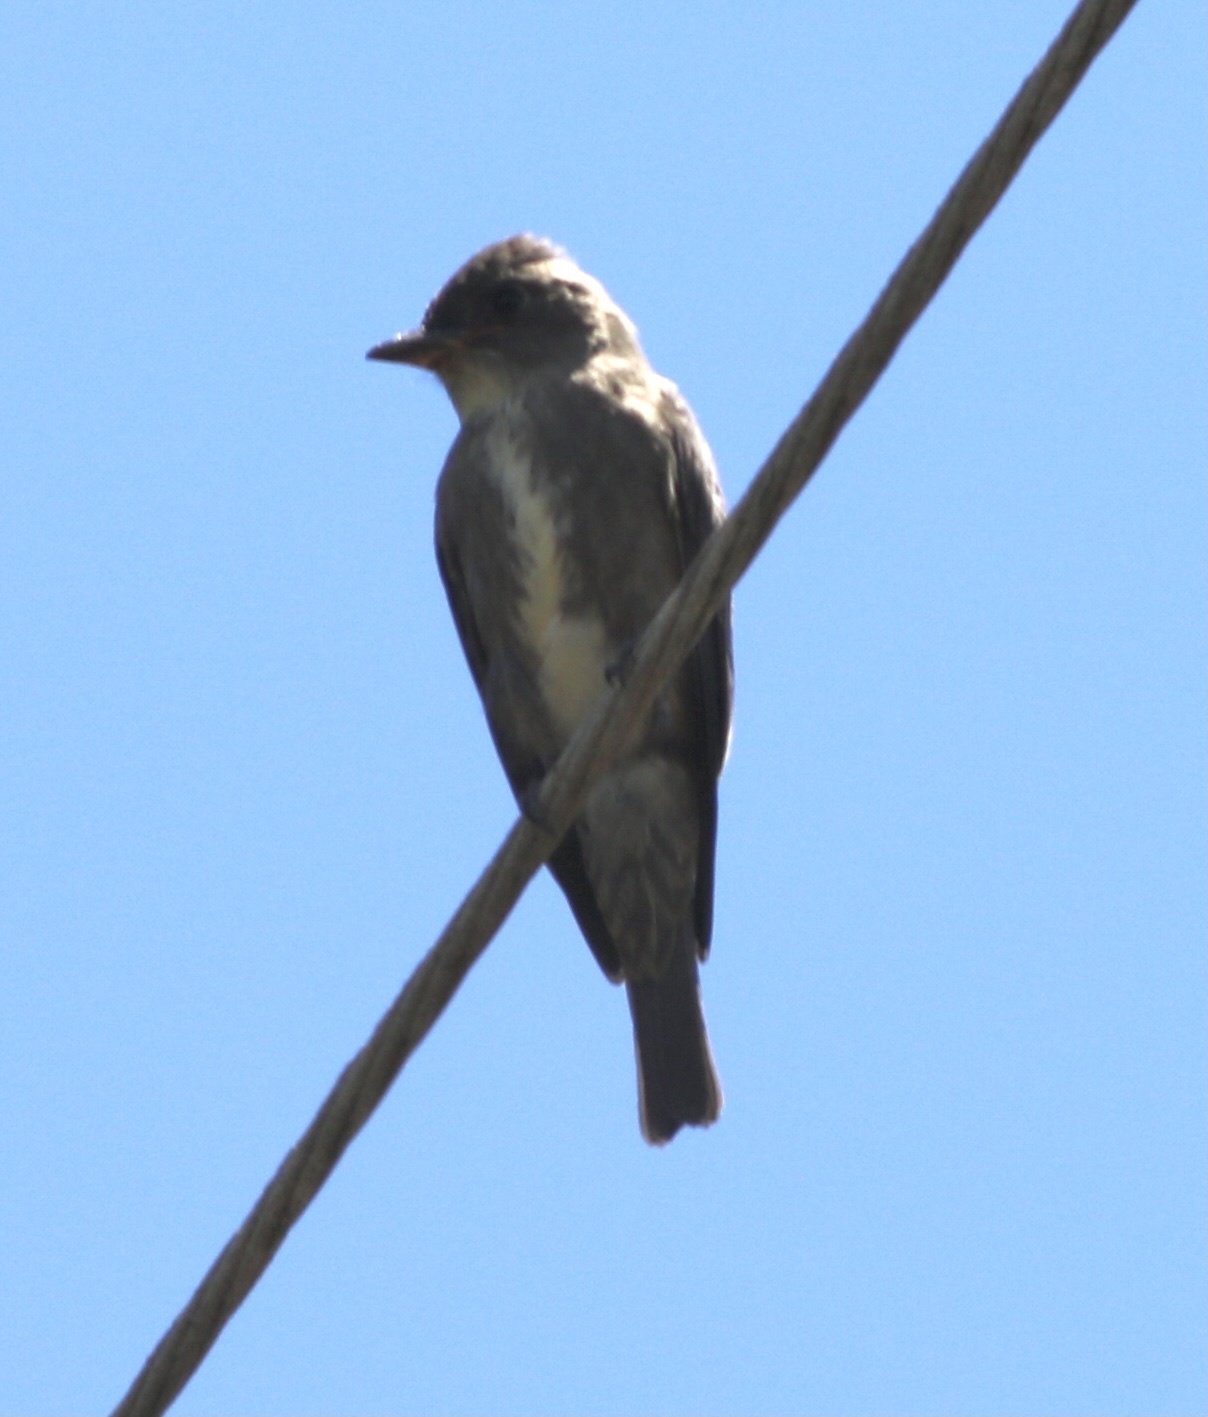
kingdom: Animalia
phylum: Chordata
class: Aves
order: Passeriformes
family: Tyrannidae
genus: Contopus
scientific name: Contopus cooperi
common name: Olive-sided flycatcher
